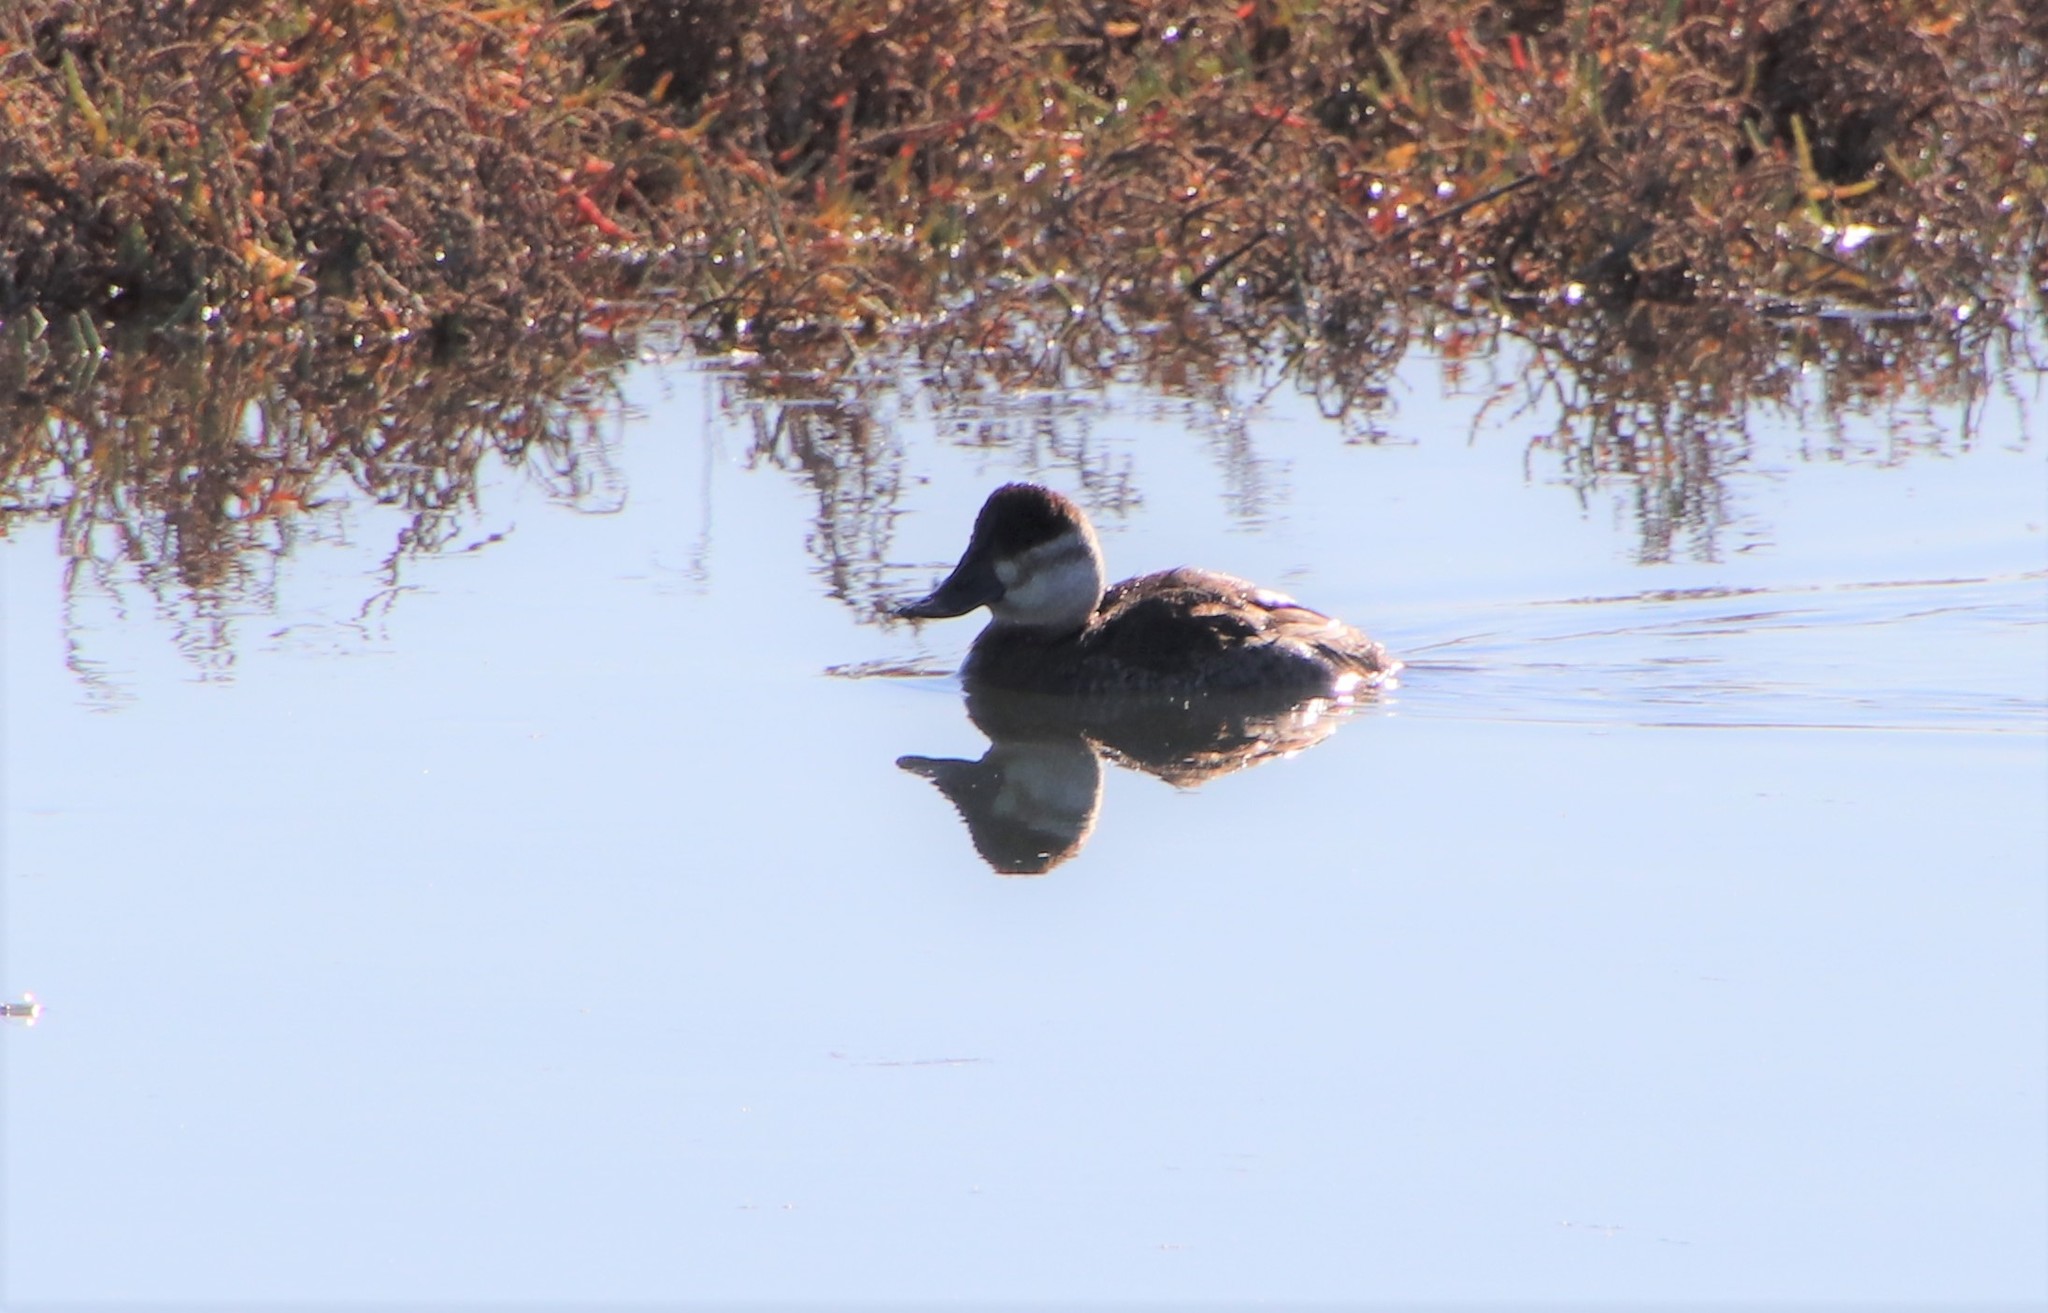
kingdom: Animalia
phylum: Chordata
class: Aves
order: Anseriformes
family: Anatidae
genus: Oxyura
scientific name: Oxyura jamaicensis
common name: Ruddy duck
